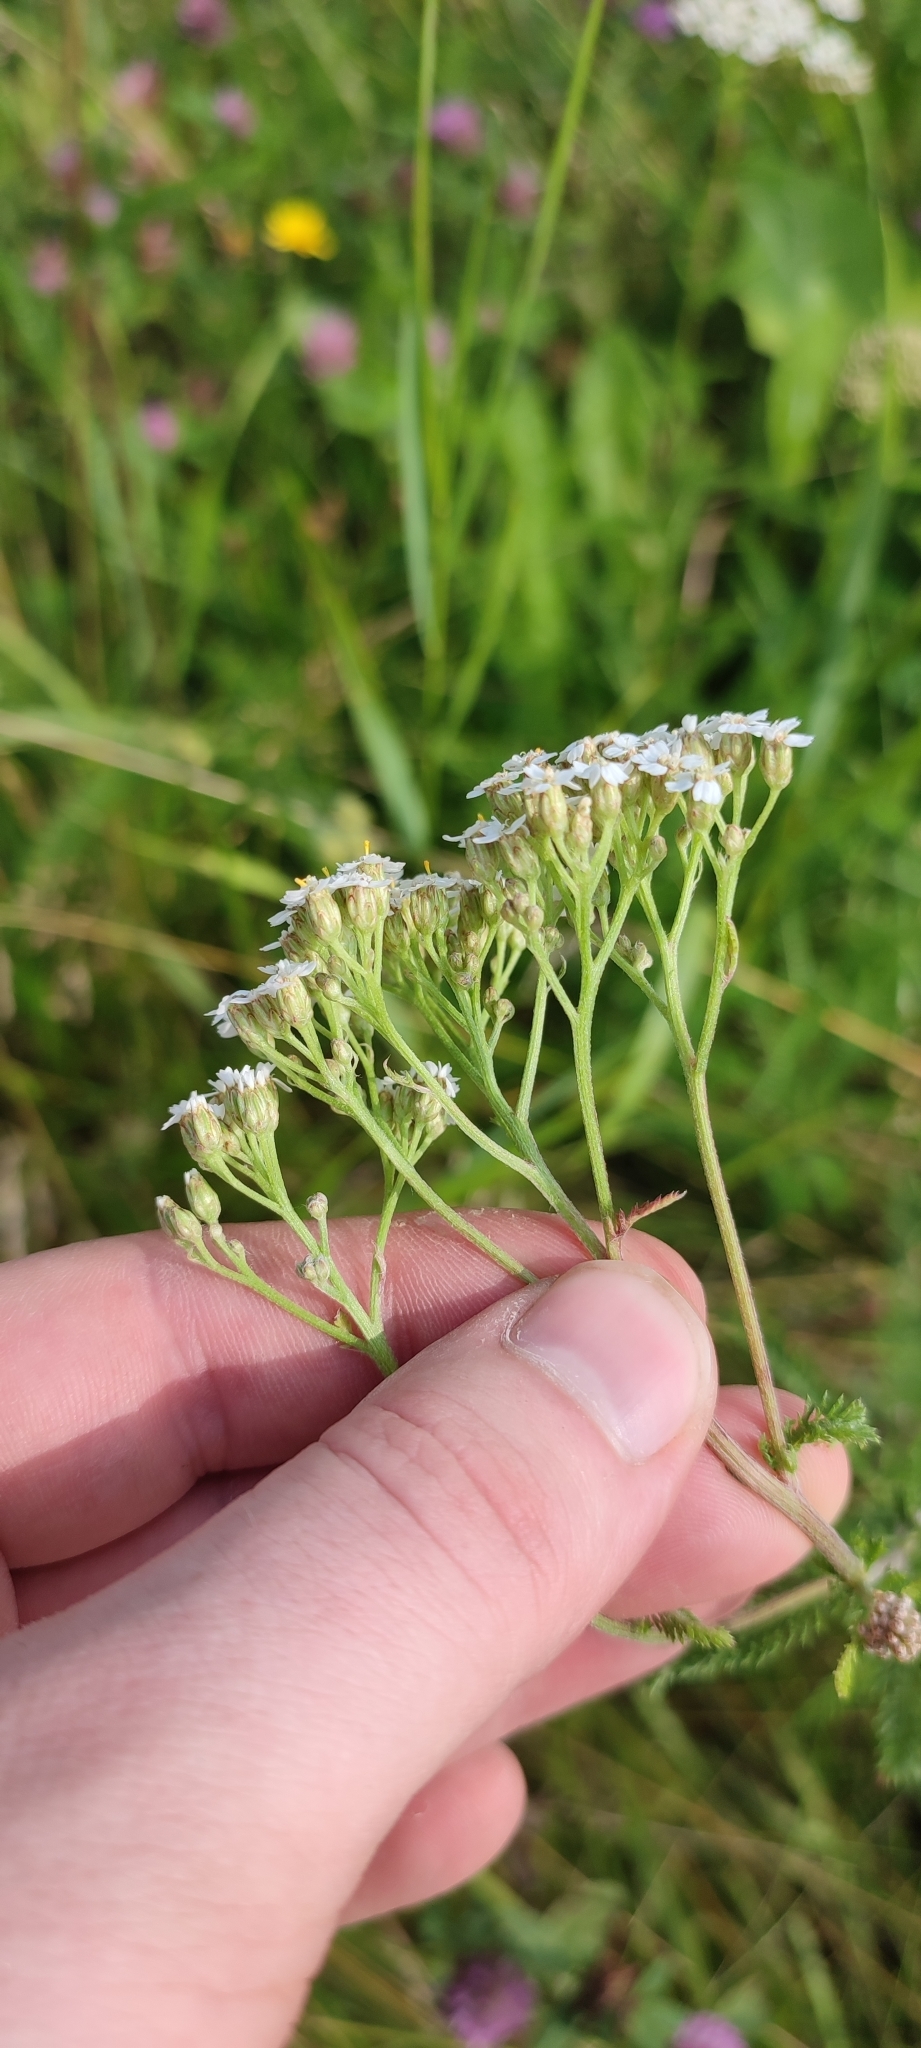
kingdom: Plantae
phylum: Tracheophyta
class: Magnoliopsida
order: Asterales
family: Asteraceae
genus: Achillea
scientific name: Achillea millefolium
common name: Yarrow
